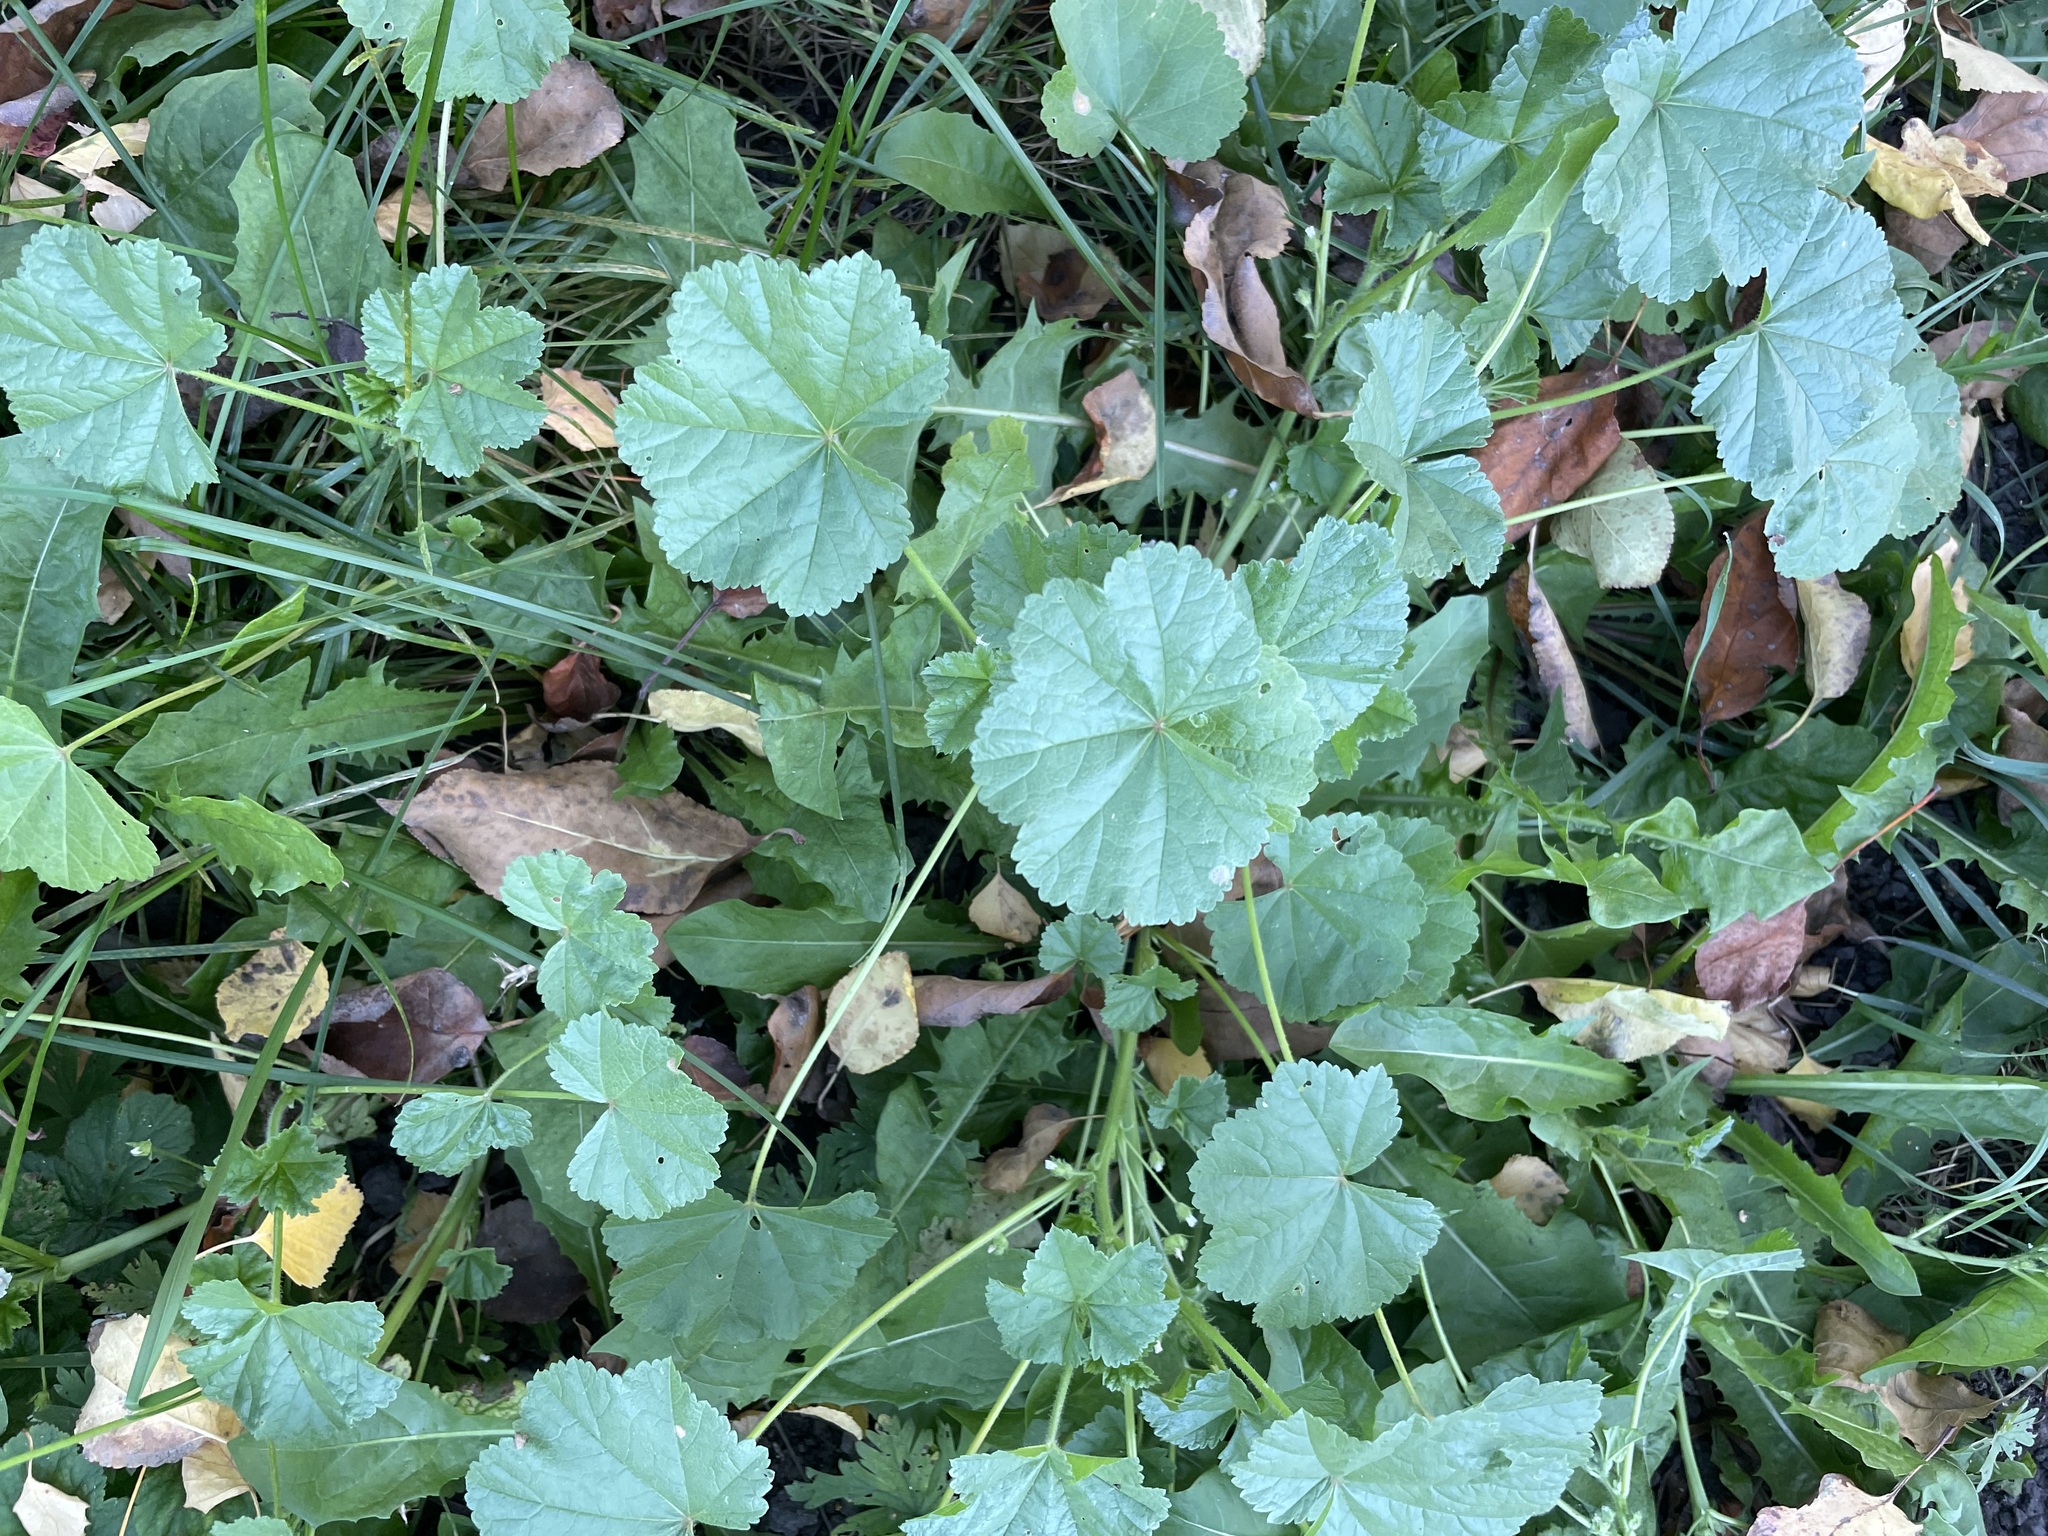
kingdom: Plantae
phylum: Tracheophyta
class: Magnoliopsida
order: Malvales
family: Malvaceae
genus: Malva
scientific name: Malva pusilla
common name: Small mallow
